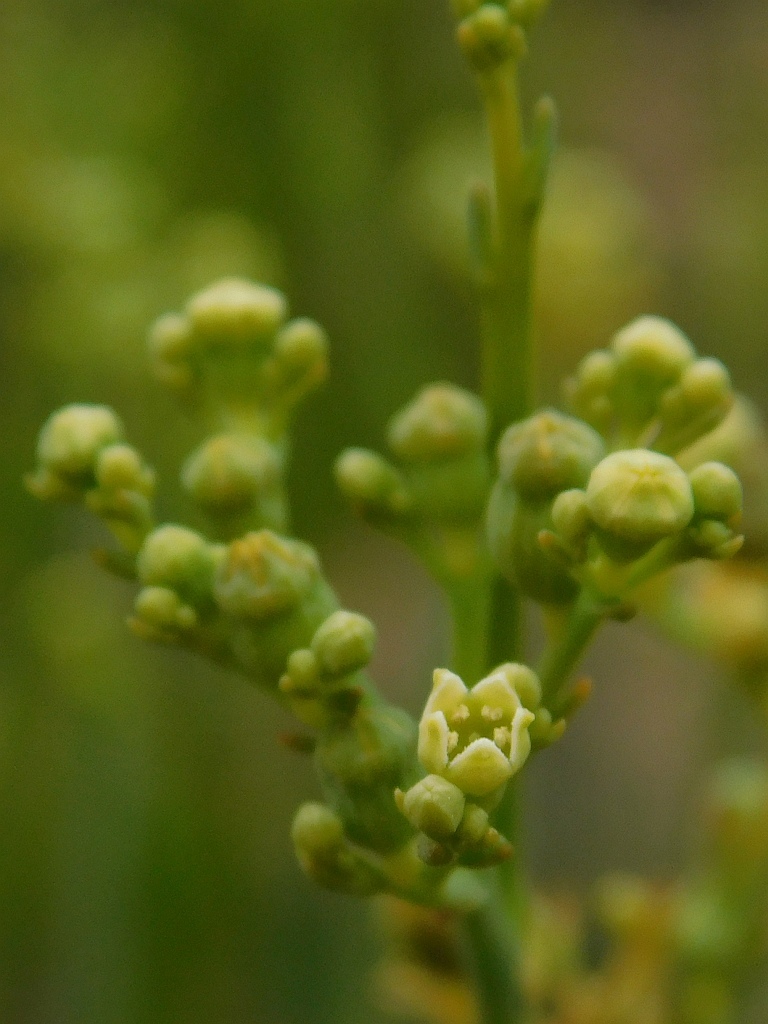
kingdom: Plantae
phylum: Tracheophyta
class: Magnoliopsida
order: Santalales
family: Thesiaceae
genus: Thesium
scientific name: Thesium strictum
